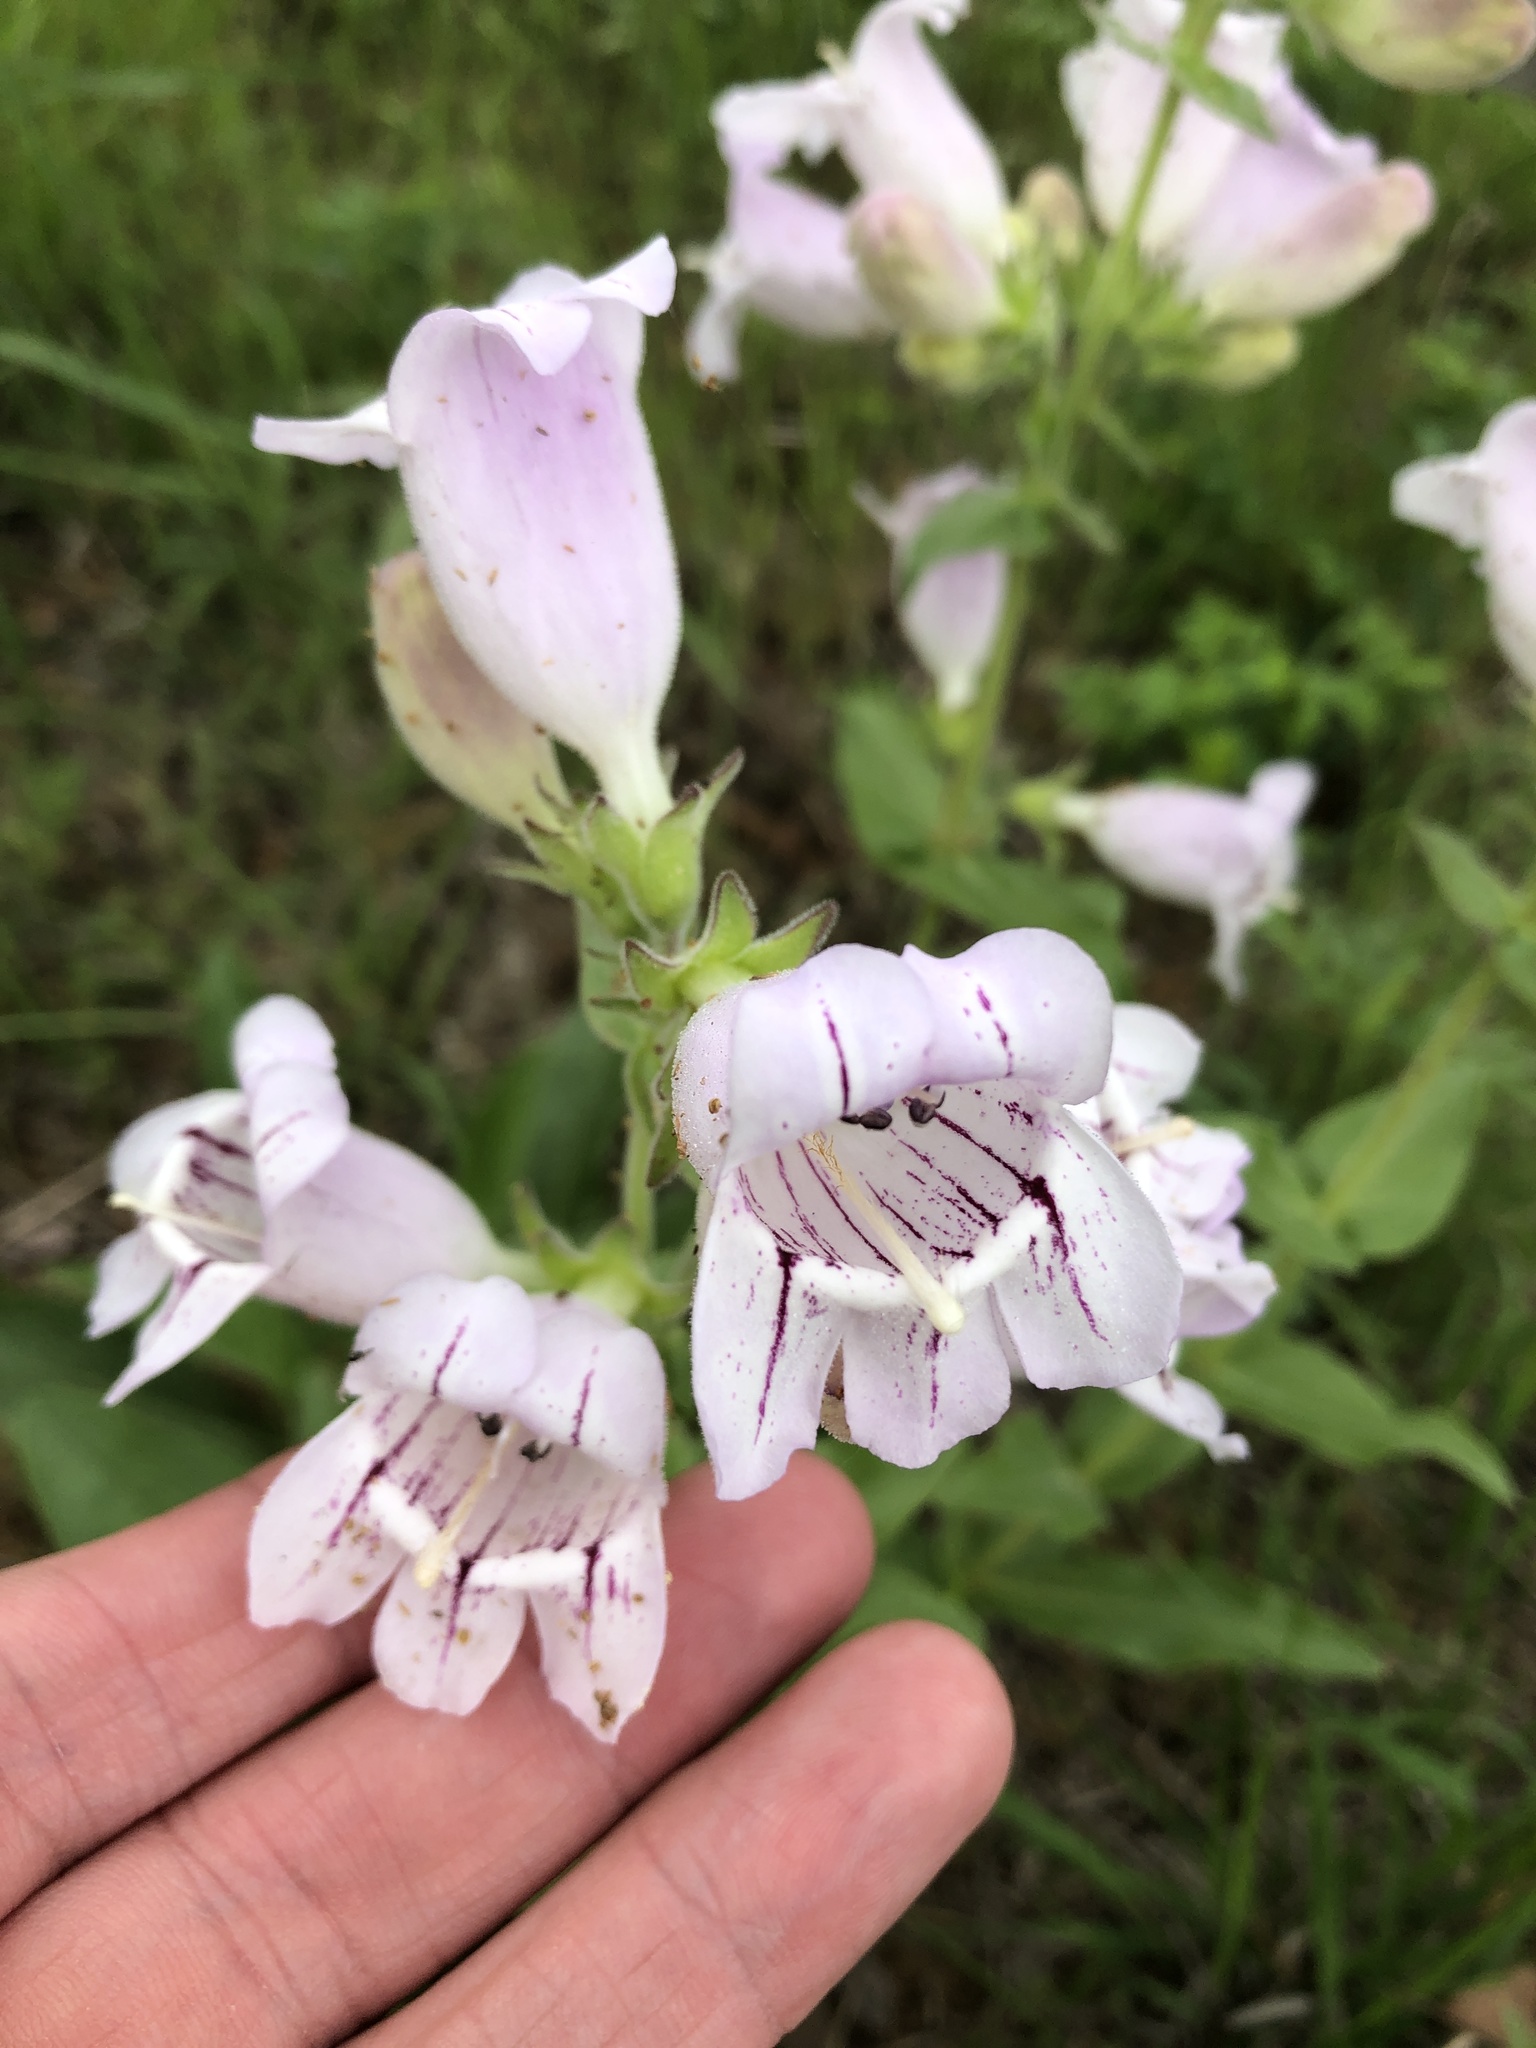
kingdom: Plantae
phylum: Tracheophyta
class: Magnoliopsida
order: Lamiales
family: Plantaginaceae
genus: Penstemon
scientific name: Penstemon cobaea
